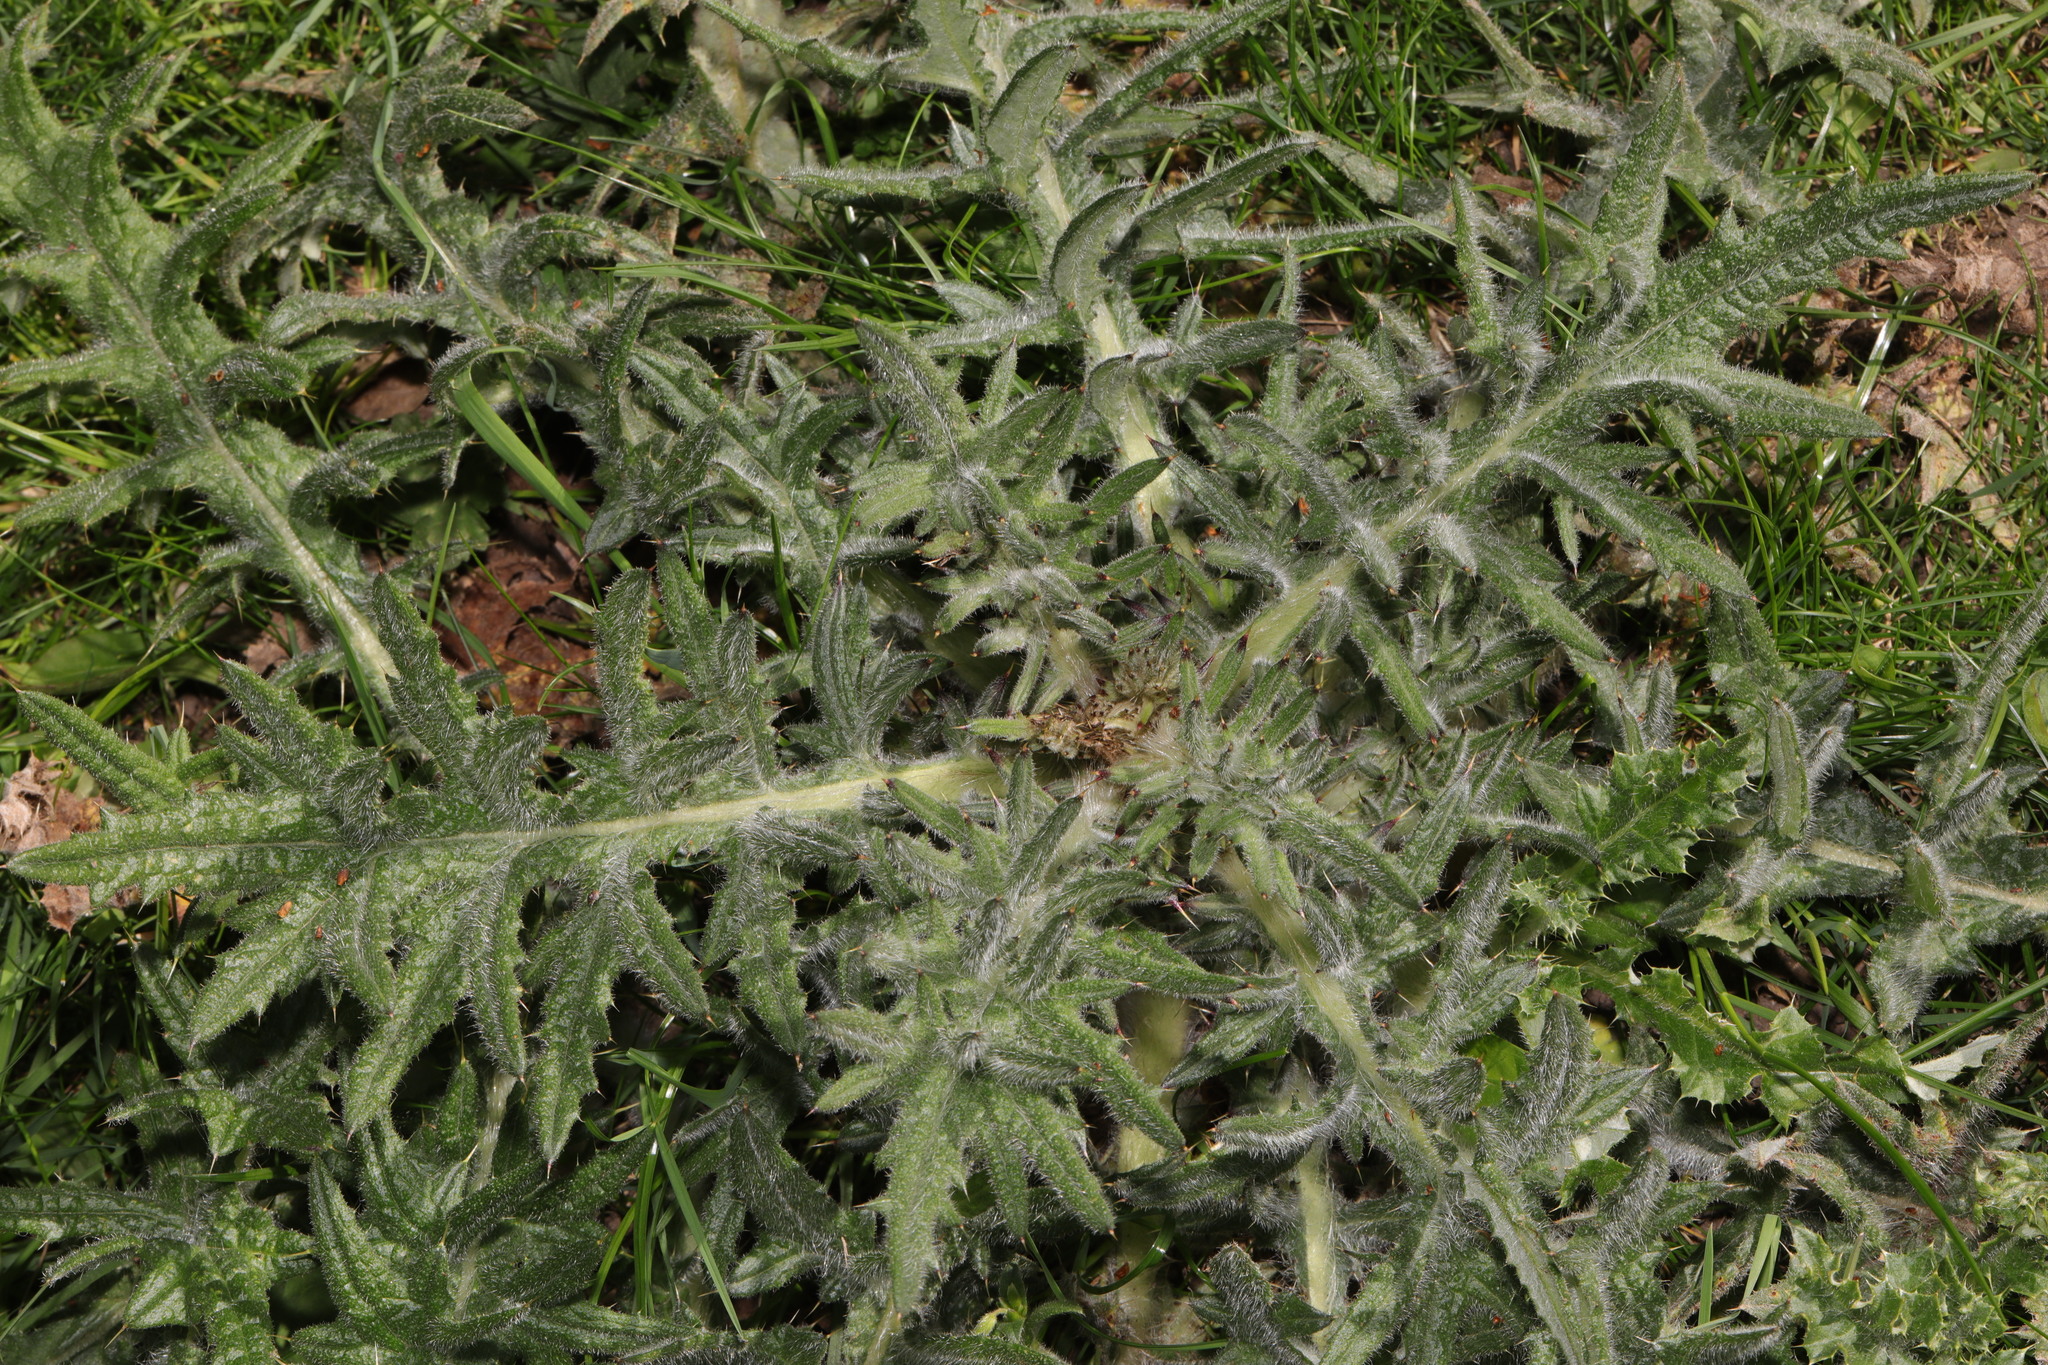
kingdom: Plantae
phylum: Tracheophyta
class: Magnoliopsida
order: Asterales
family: Asteraceae
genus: Cirsium
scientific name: Cirsium vulgare
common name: Bull thistle
